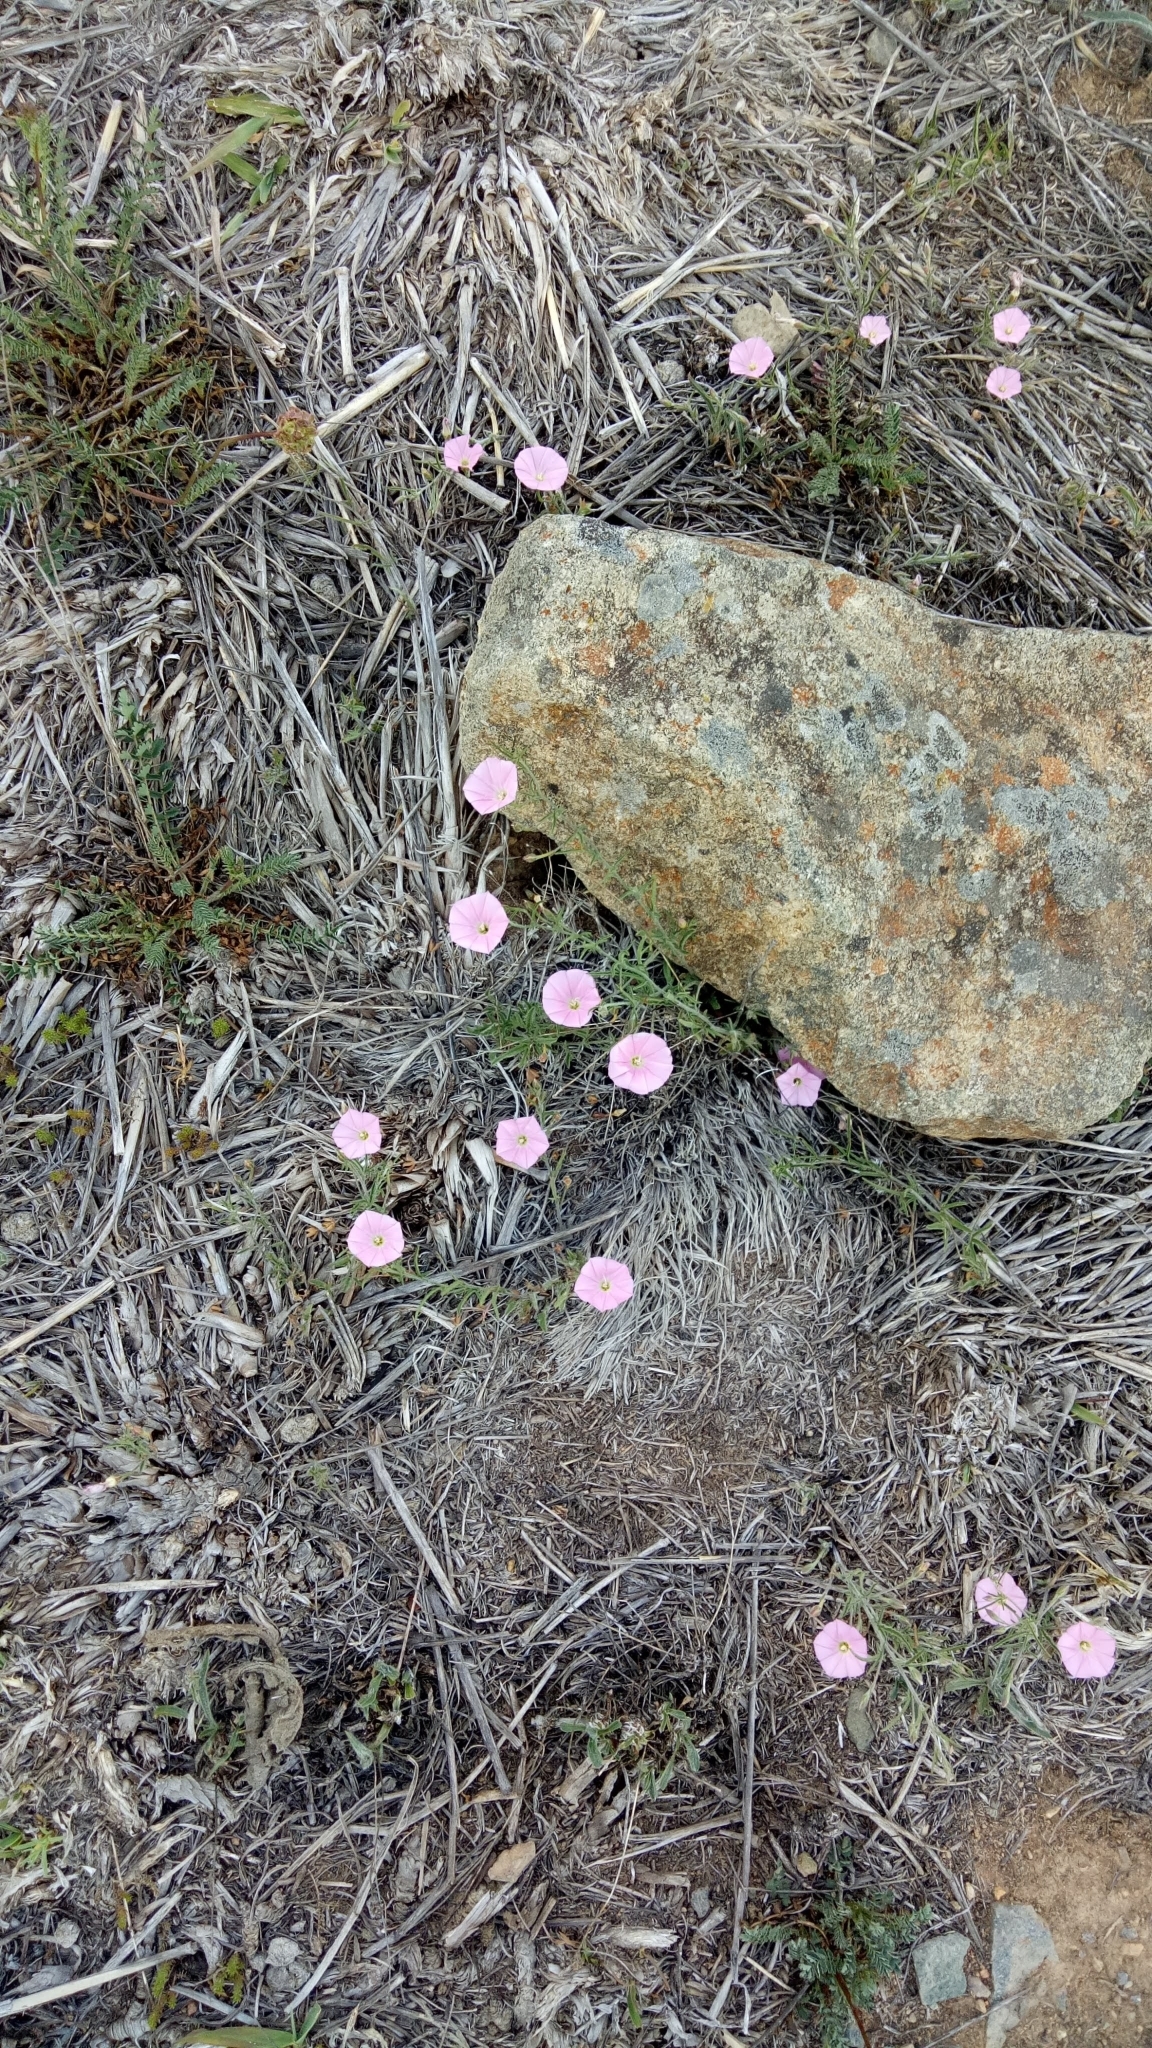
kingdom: Plantae
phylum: Tracheophyta
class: Magnoliopsida
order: Solanales
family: Convolvulaceae
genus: Convolvulus
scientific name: Convolvulus angustissimus
